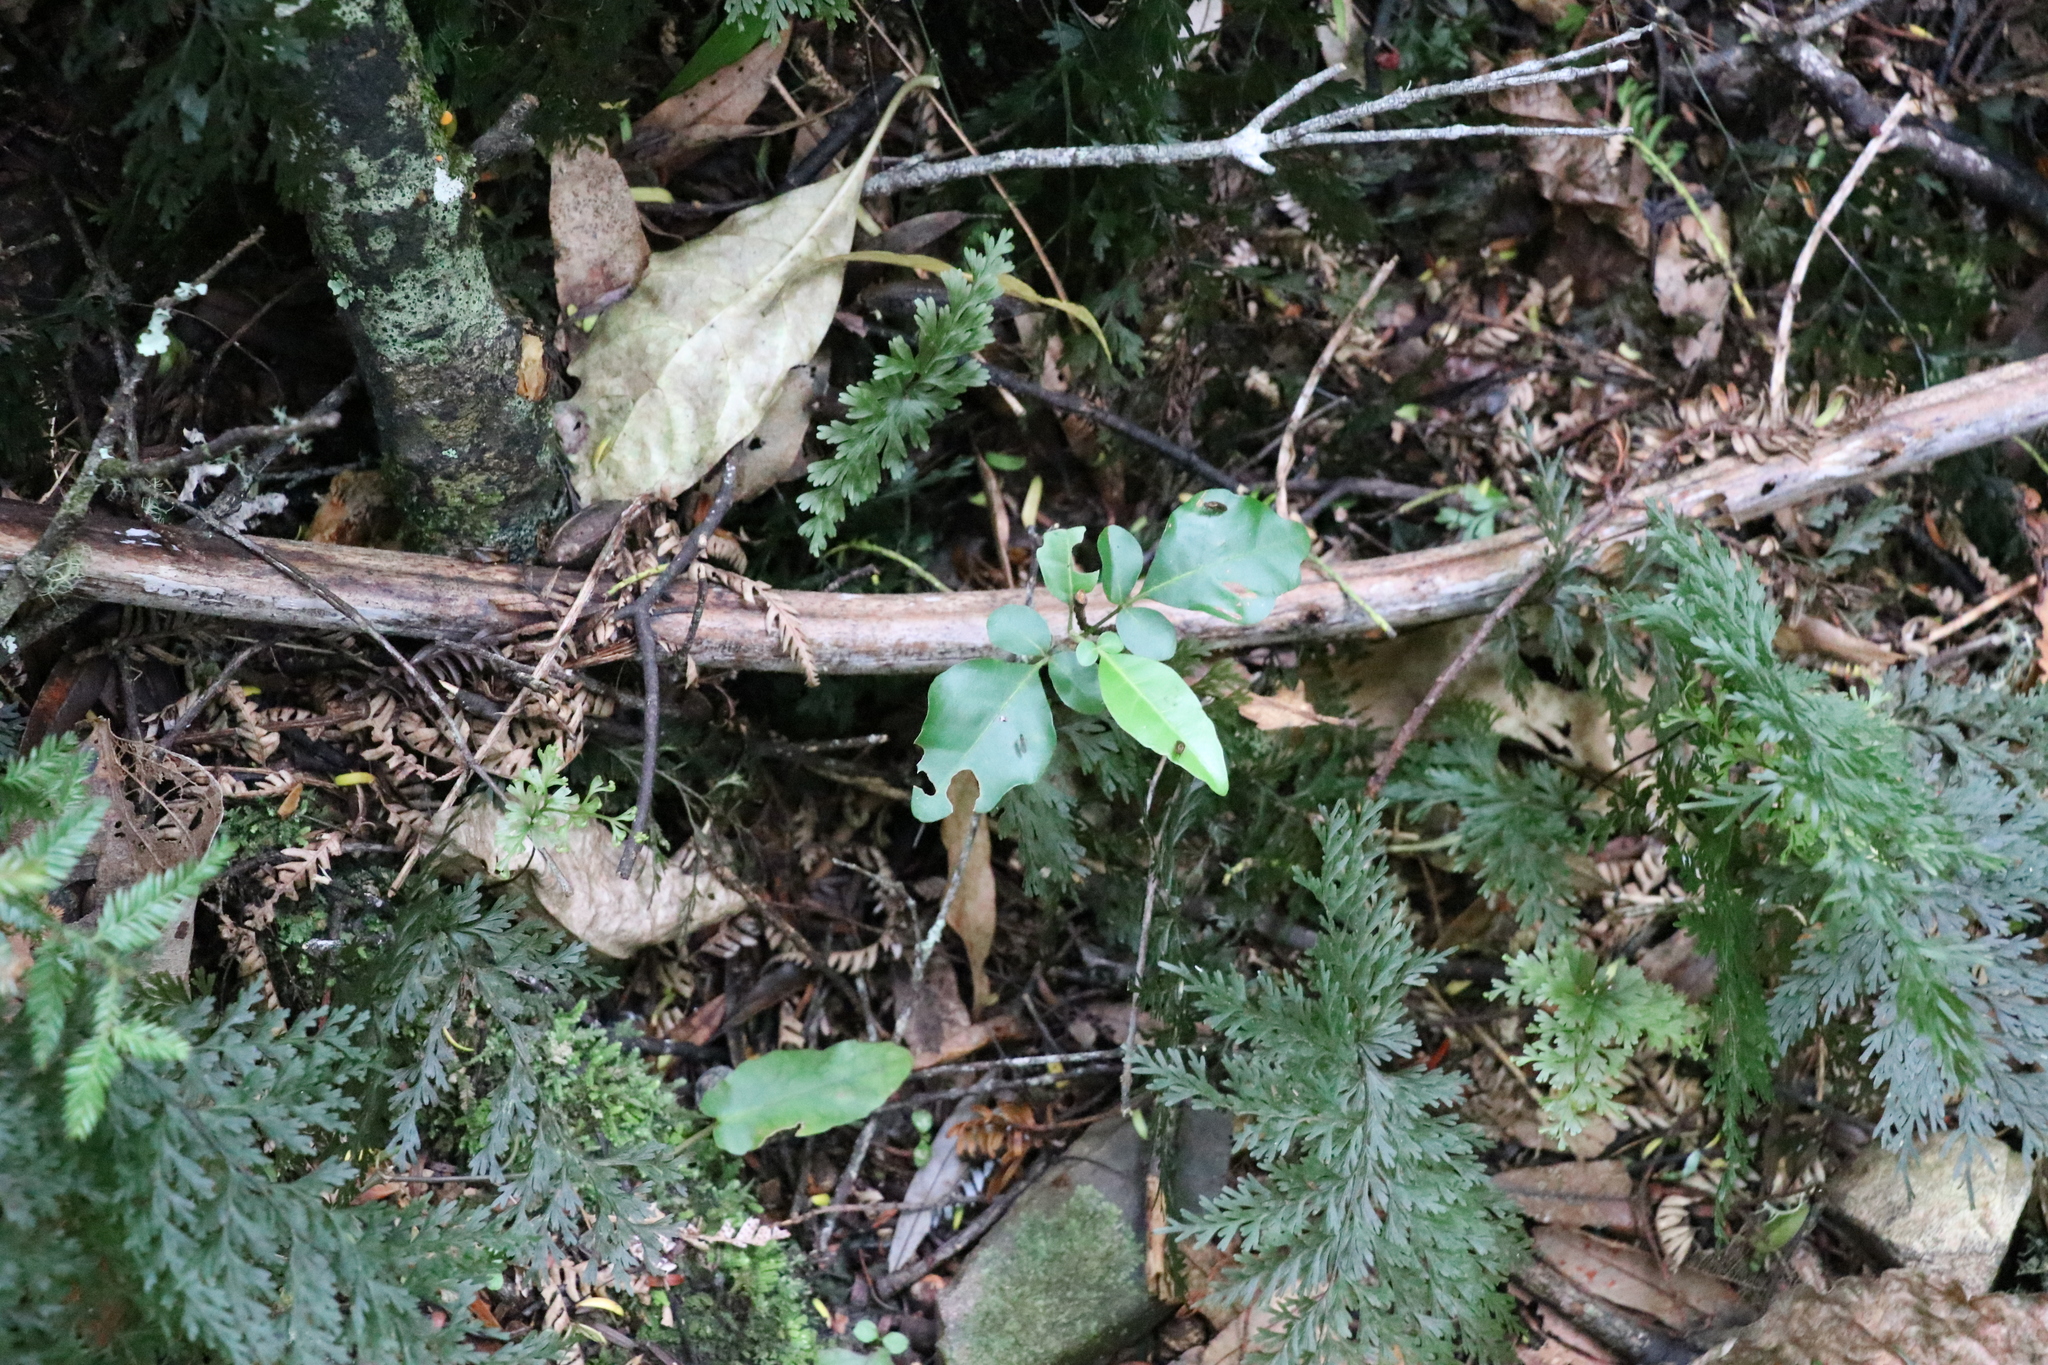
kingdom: Plantae
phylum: Tracheophyta
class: Magnoliopsida
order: Sapindales
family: Meliaceae
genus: Didymocheton
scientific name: Didymocheton spectabilis
